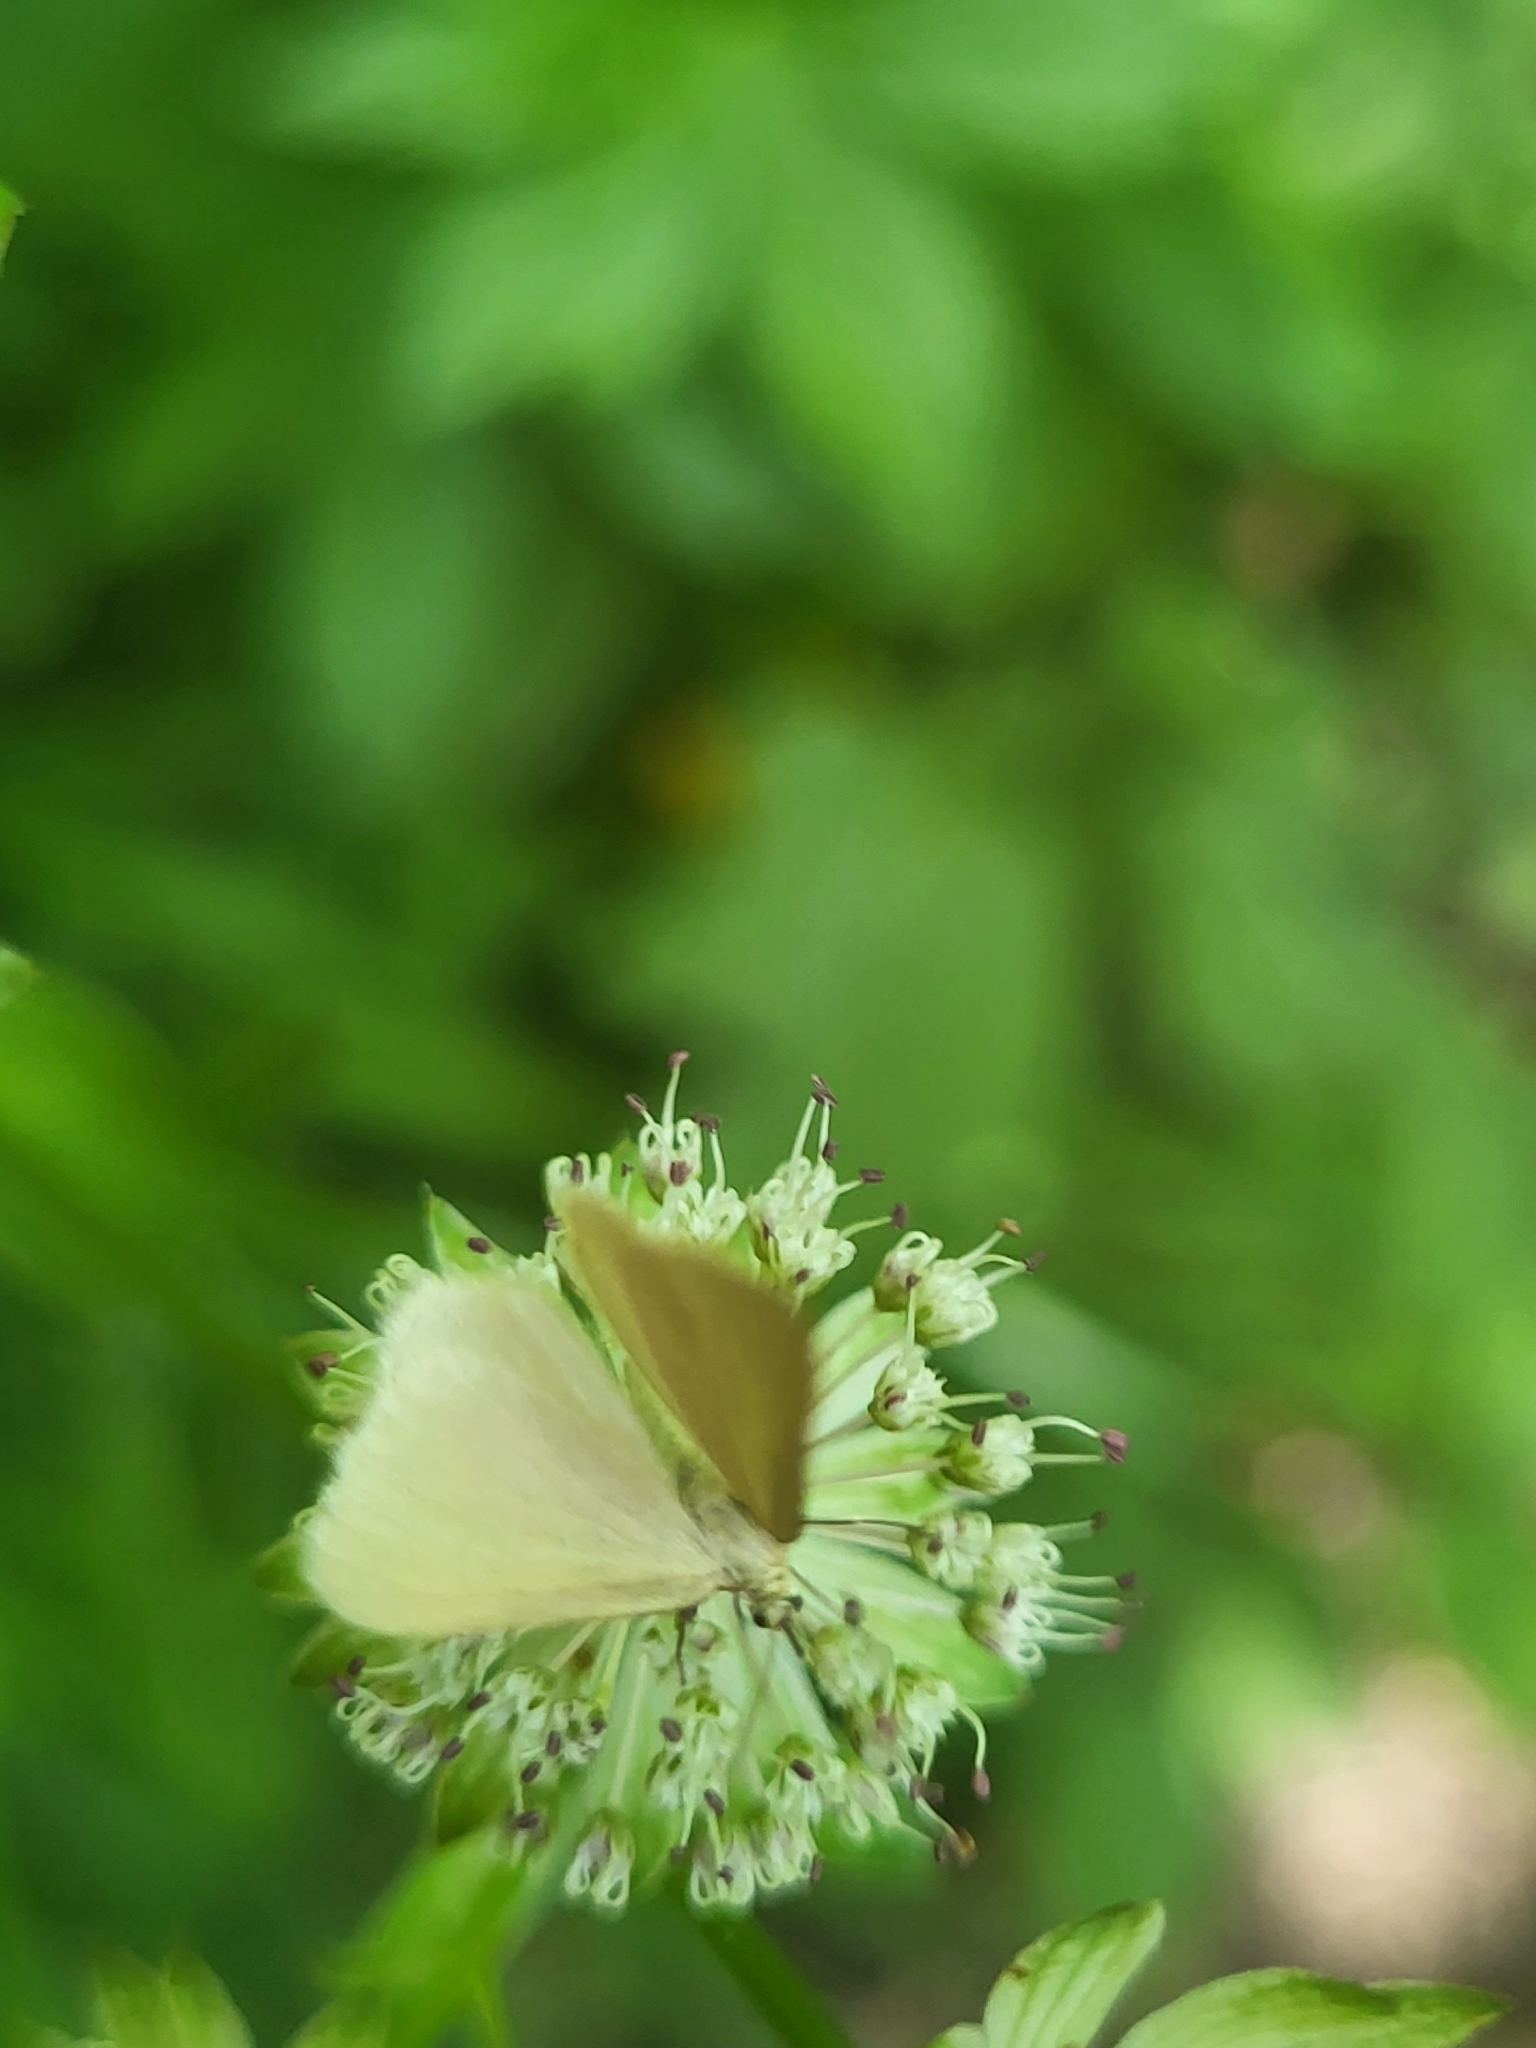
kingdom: Animalia
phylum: Arthropoda
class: Insecta
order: Lepidoptera
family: Geometridae
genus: Minoa
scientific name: Minoa murinata
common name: Drab looper
